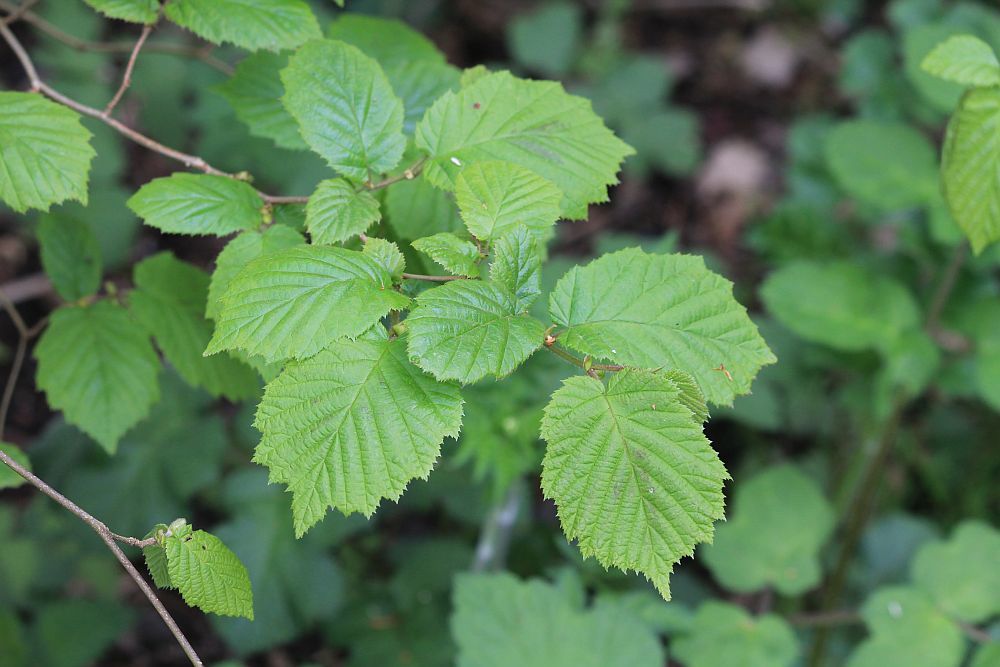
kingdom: Plantae
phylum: Tracheophyta
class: Magnoliopsida
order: Fagales
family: Betulaceae
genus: Corylus
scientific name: Corylus avellana
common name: European hazel
